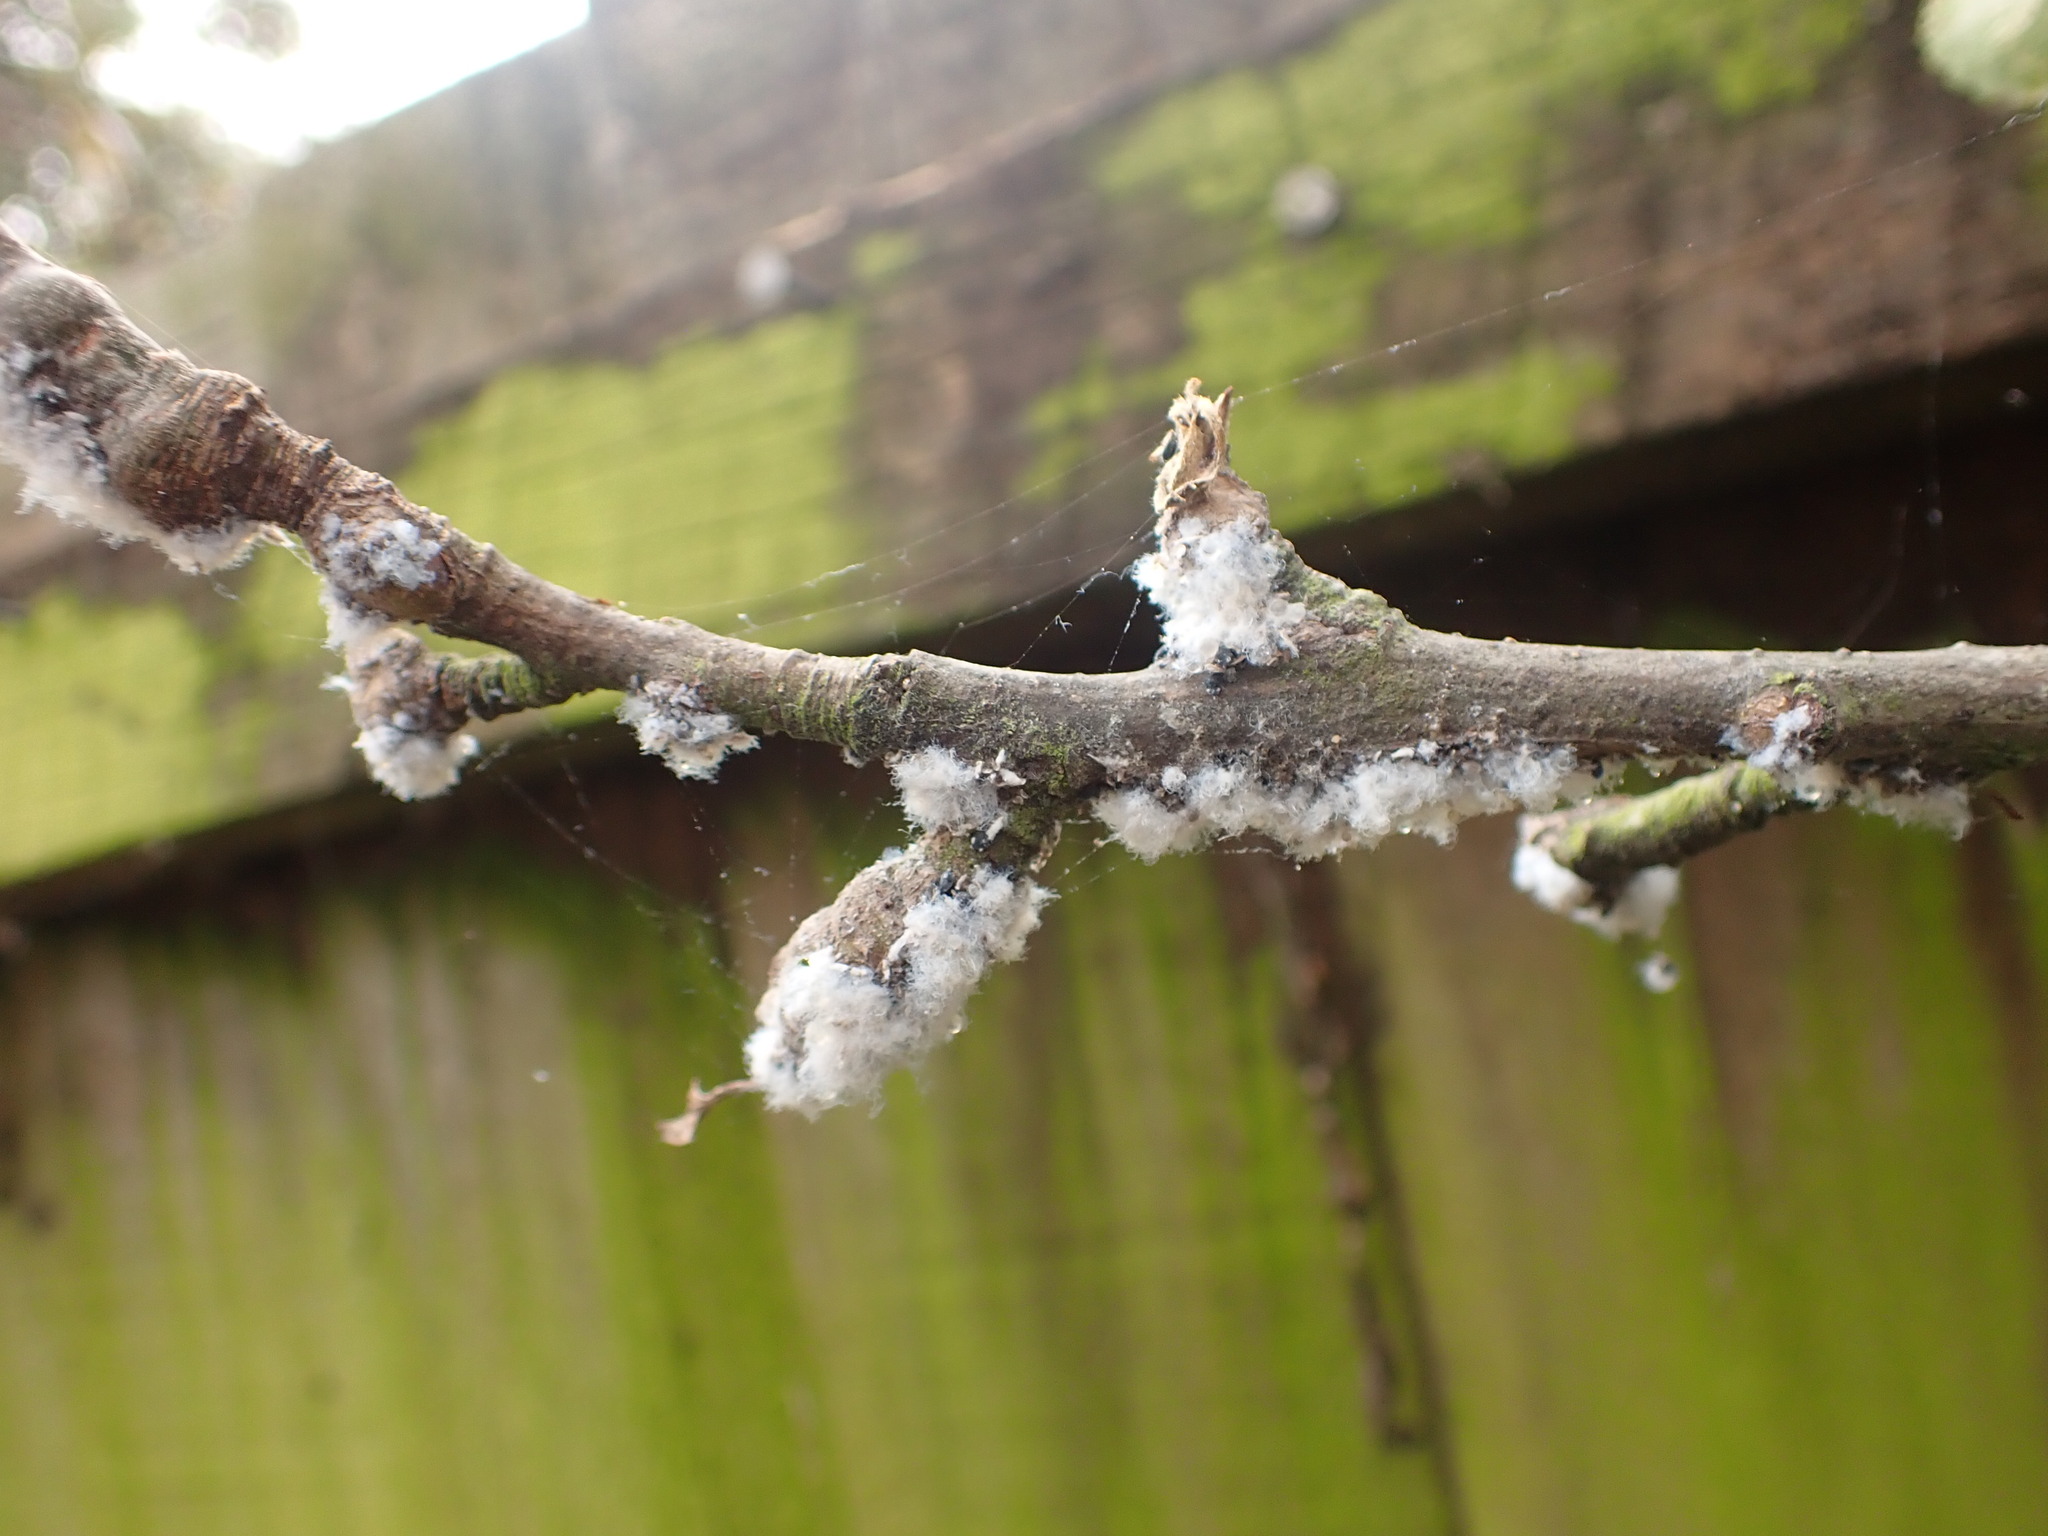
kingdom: Animalia
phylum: Arthropoda
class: Insecta
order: Hemiptera
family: Aphididae
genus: Eriosoma
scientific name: Eriosoma lanigerum
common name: Woolly apple aphid
